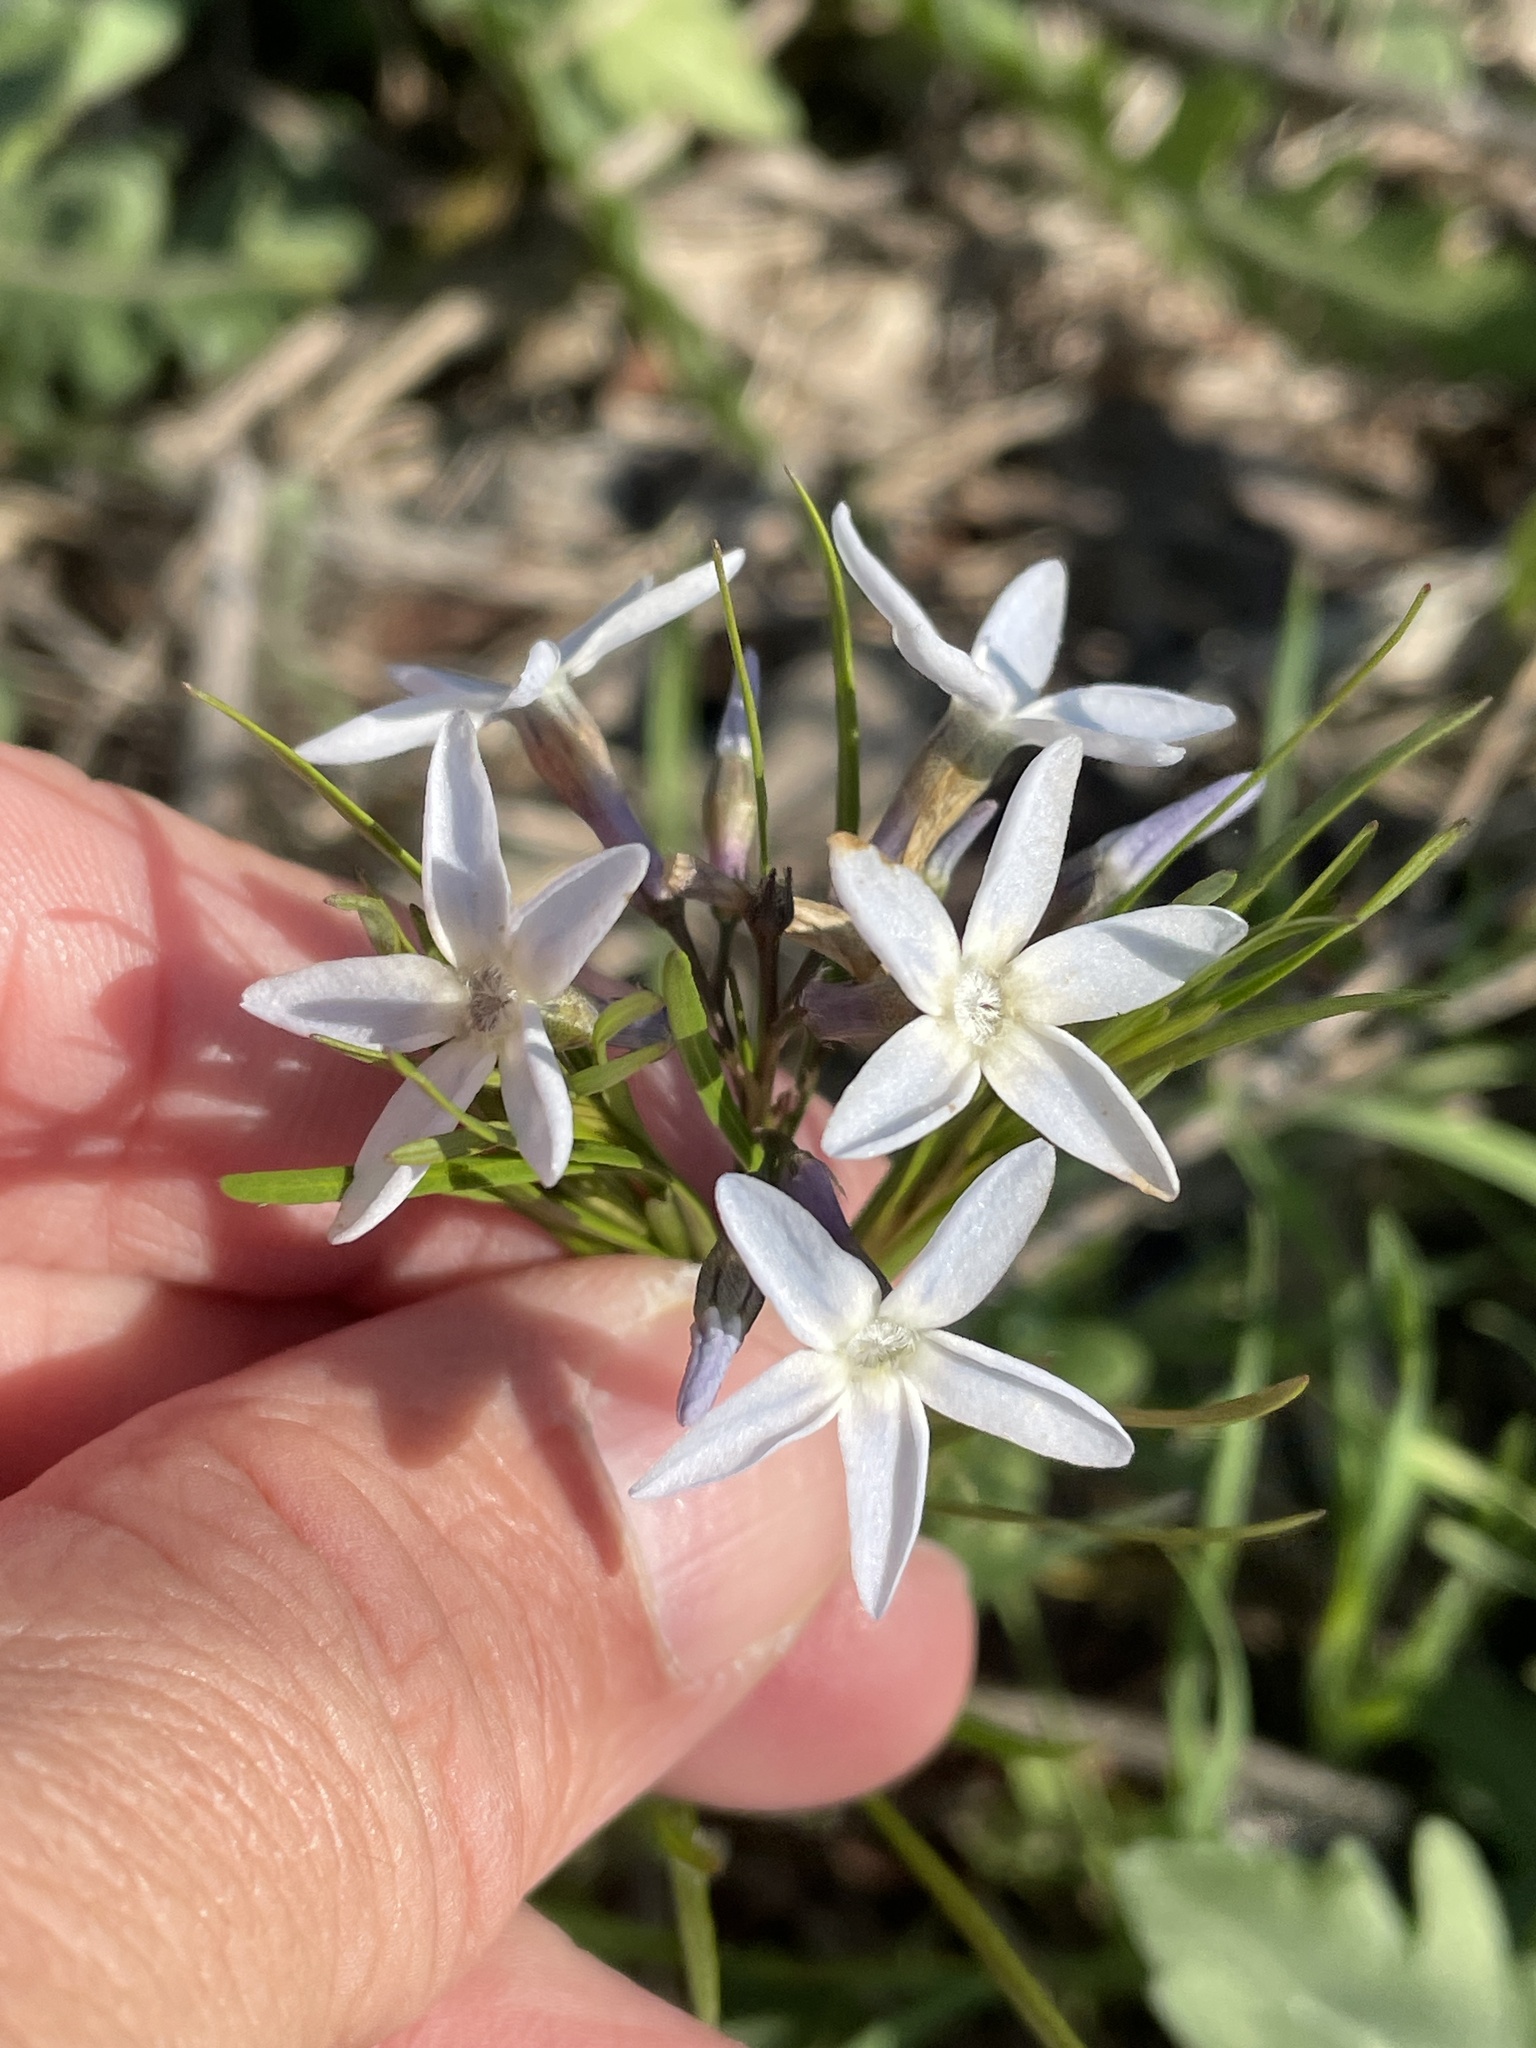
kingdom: Plantae
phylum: Tracheophyta
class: Magnoliopsida
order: Gentianales
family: Apocynaceae
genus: Amsonia
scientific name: Amsonia ciliata
